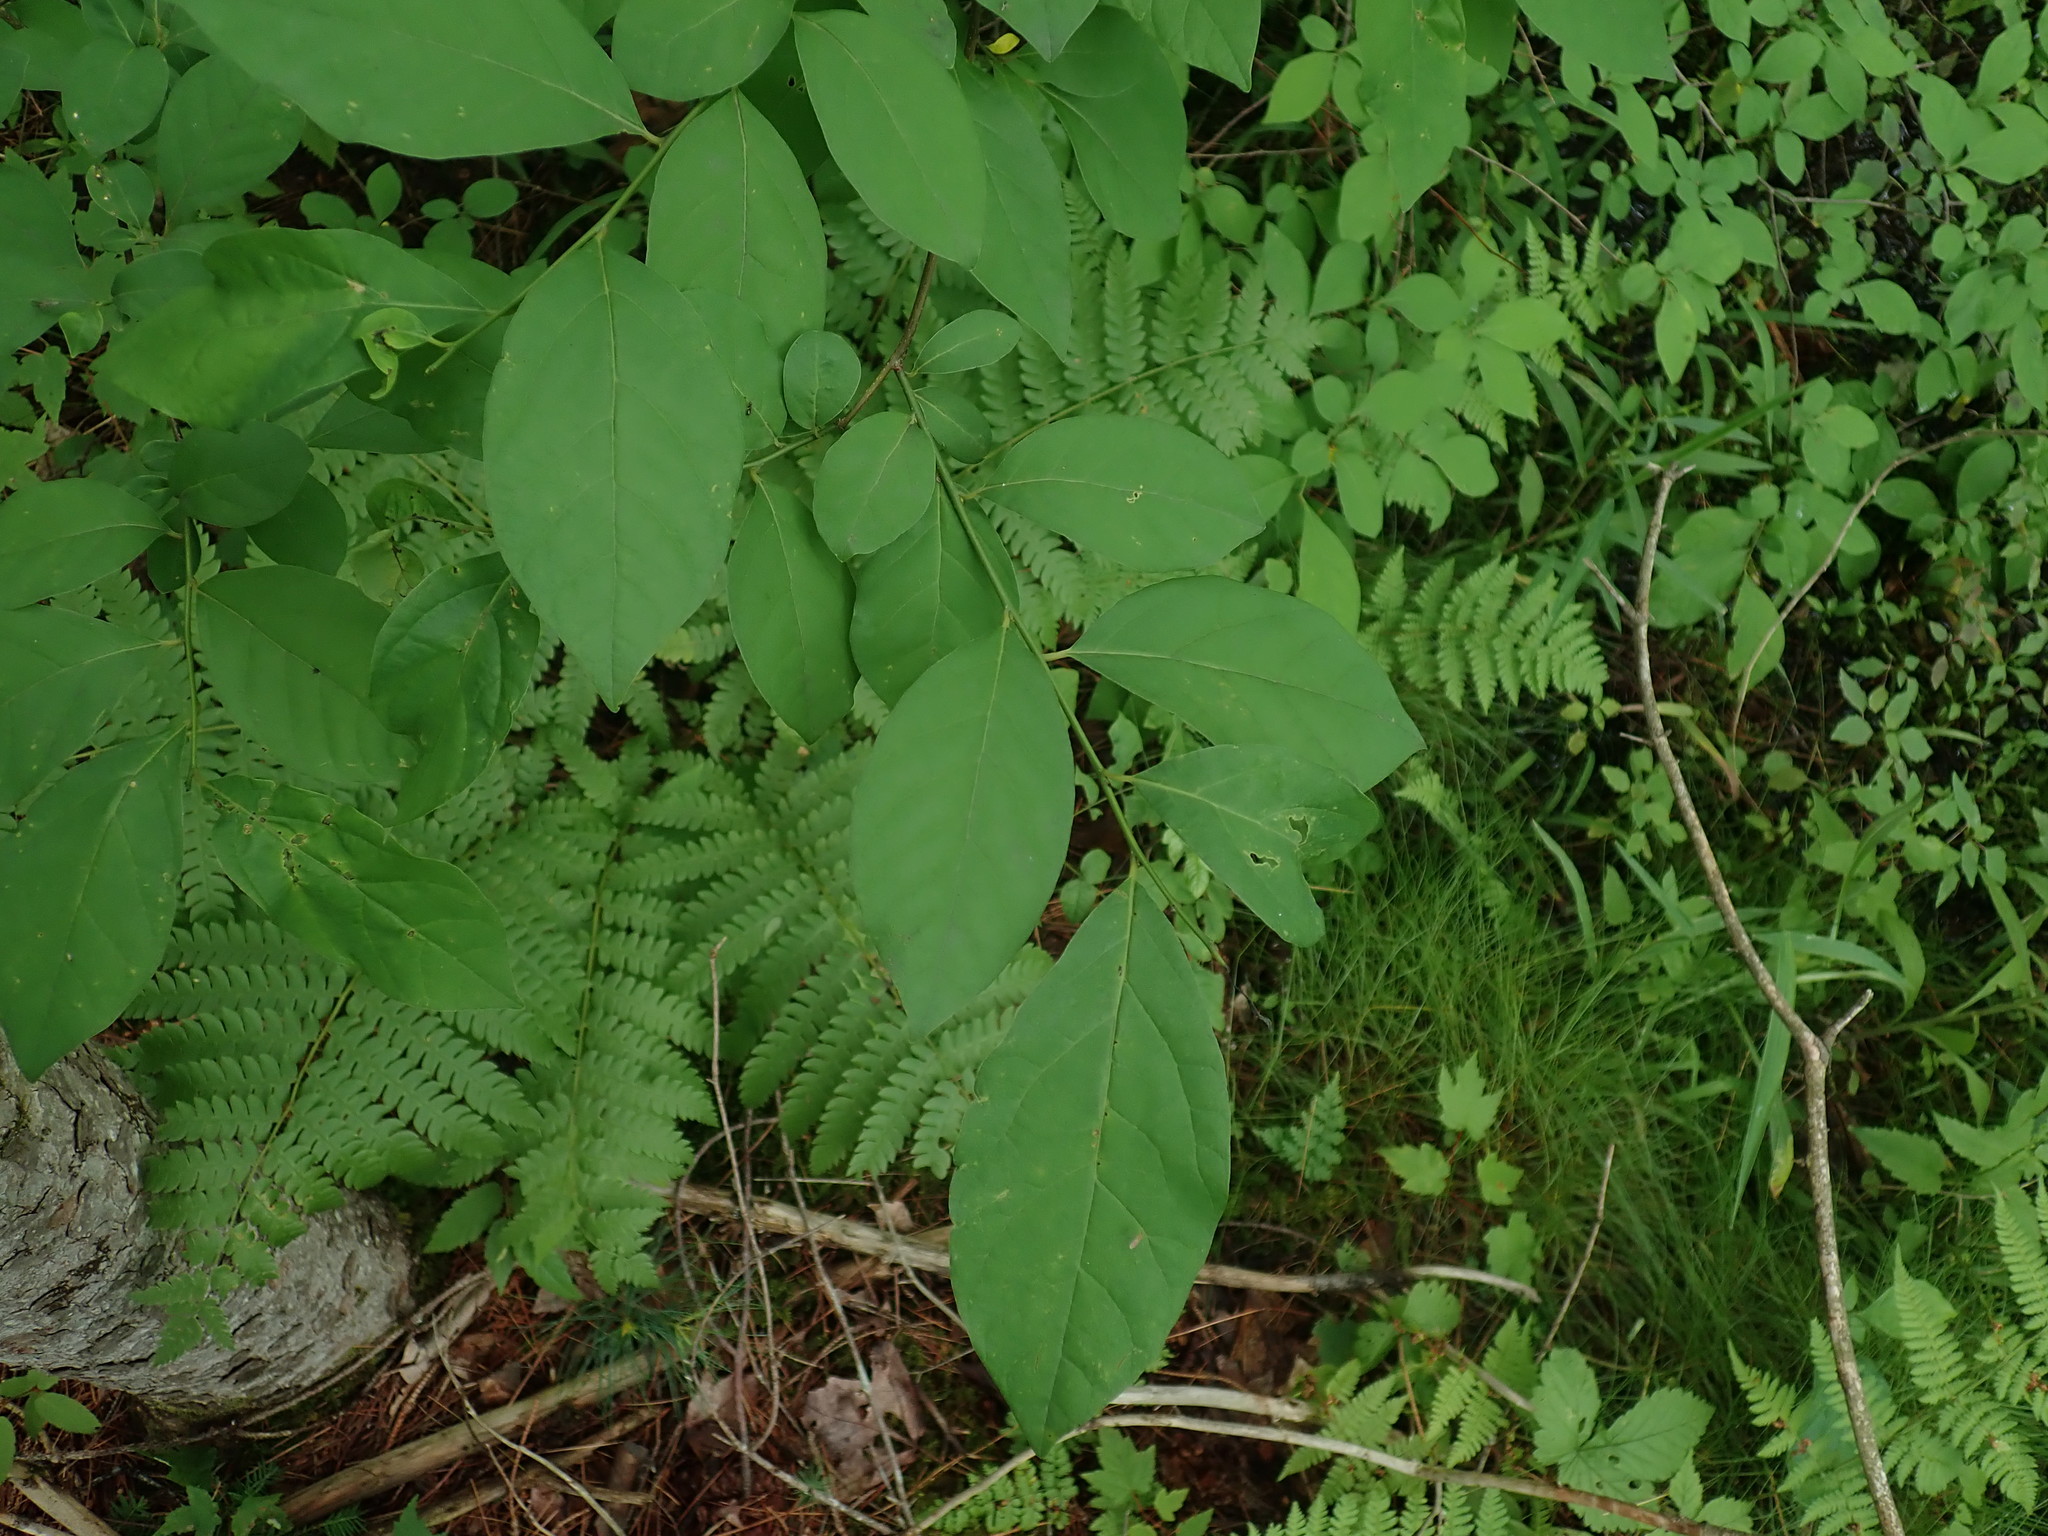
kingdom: Plantae
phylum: Tracheophyta
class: Magnoliopsida
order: Laurales
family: Lauraceae
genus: Lindera
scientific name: Lindera benzoin
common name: Spicebush
